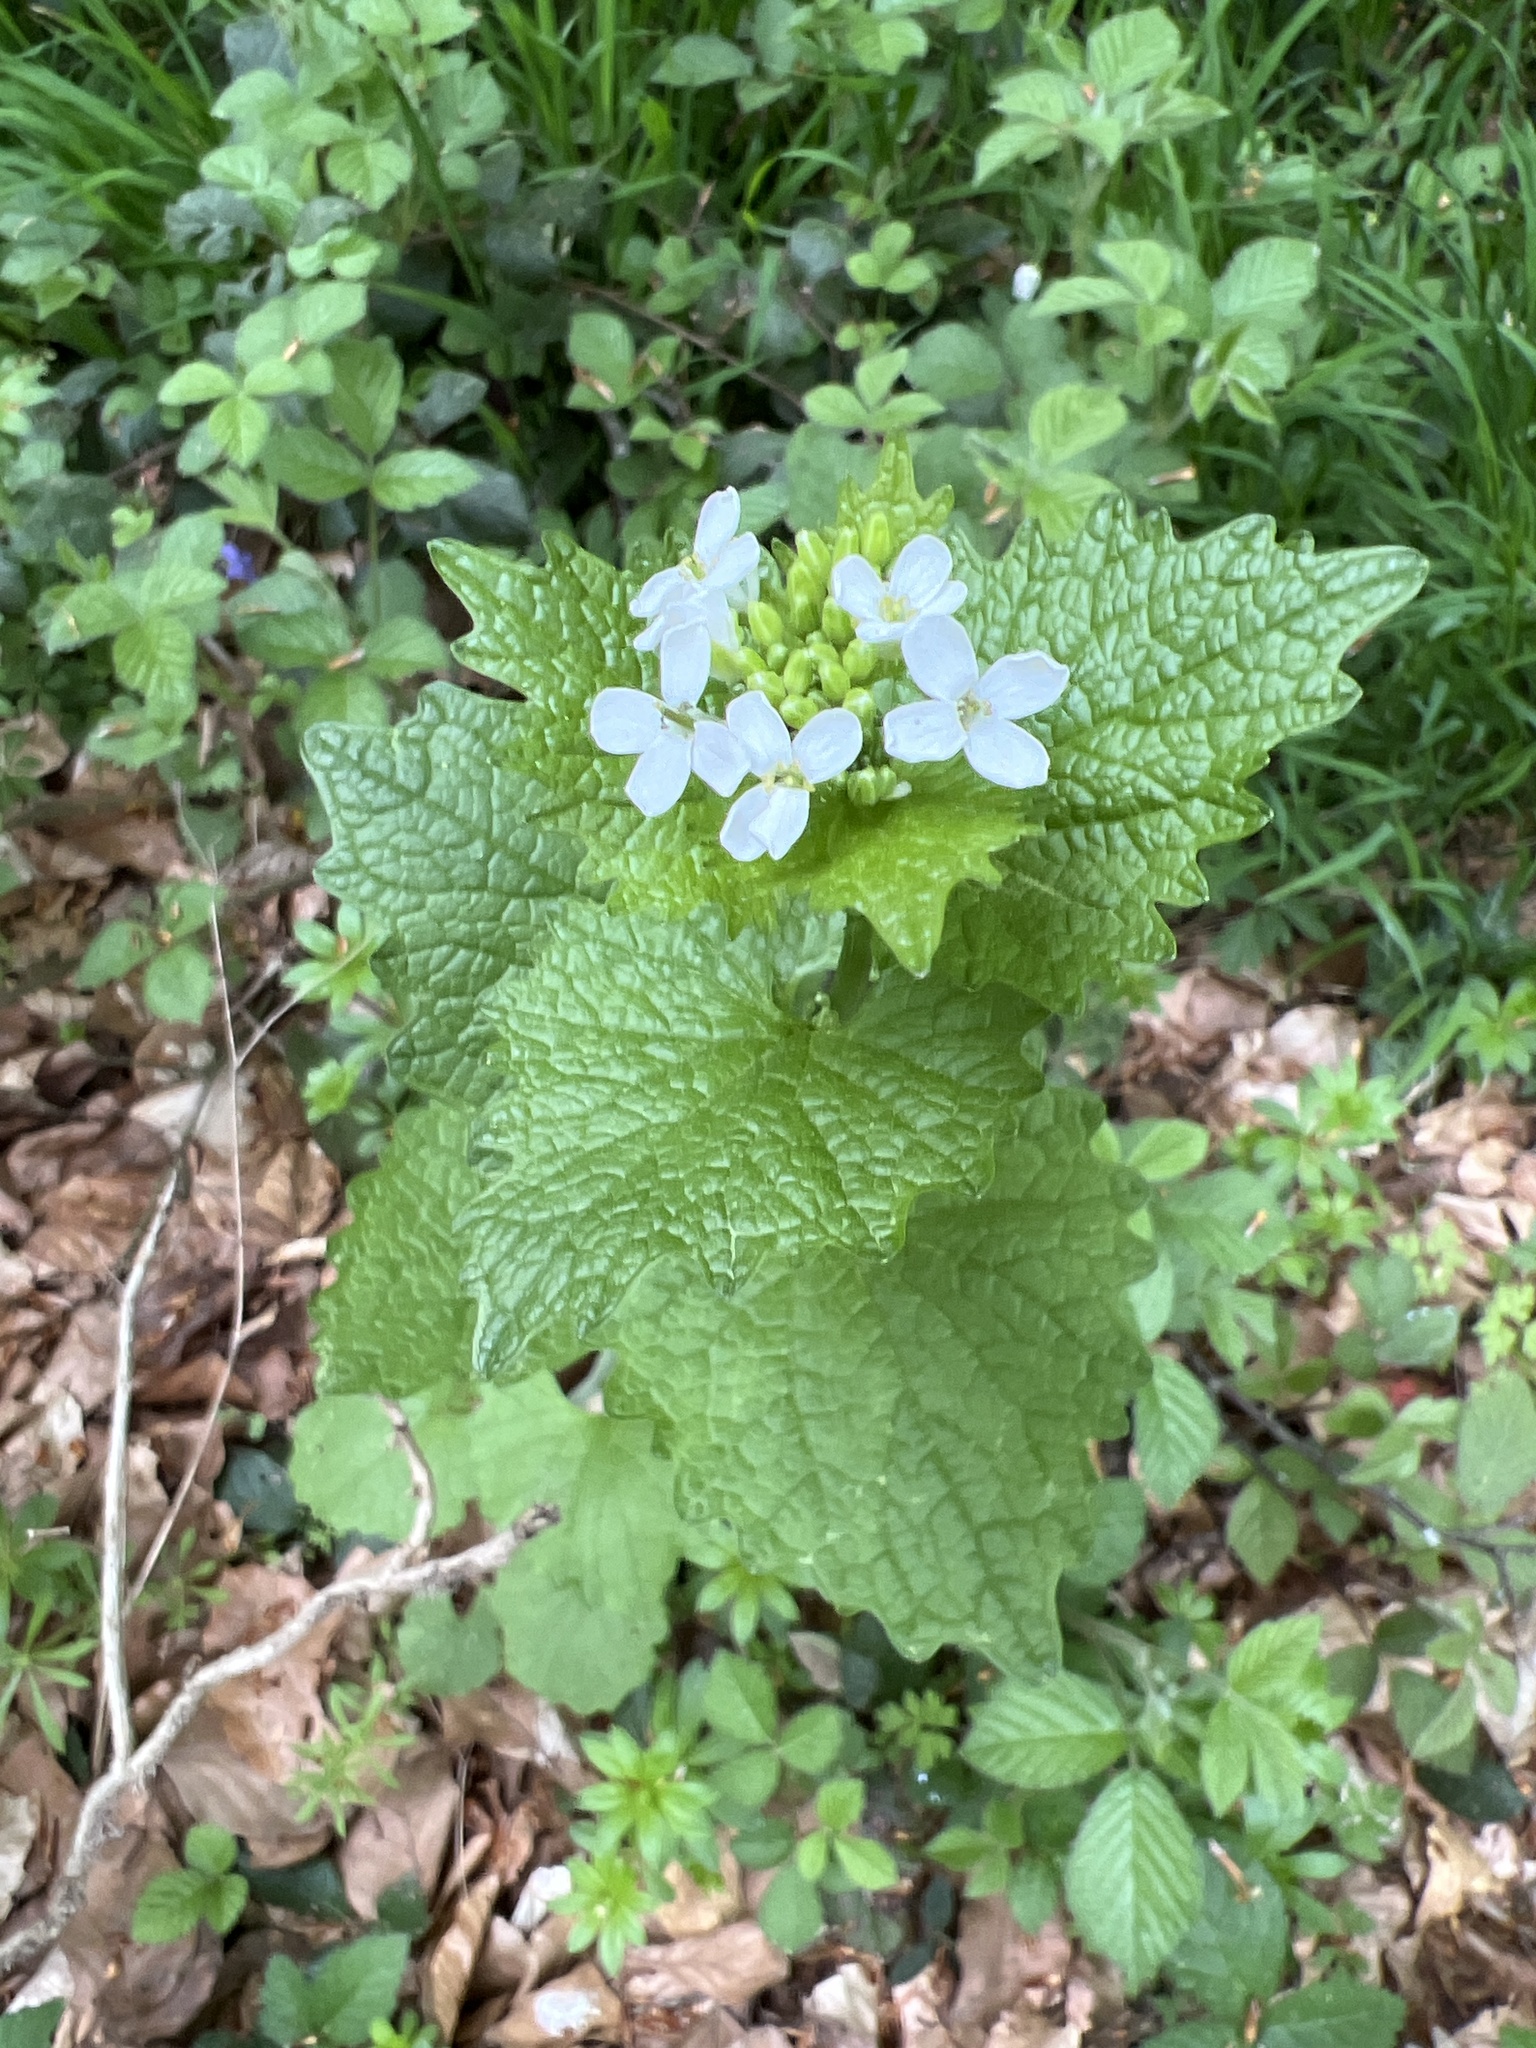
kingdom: Plantae
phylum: Tracheophyta
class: Magnoliopsida
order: Brassicales
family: Brassicaceae
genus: Alliaria
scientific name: Alliaria petiolata
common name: Garlic mustard
